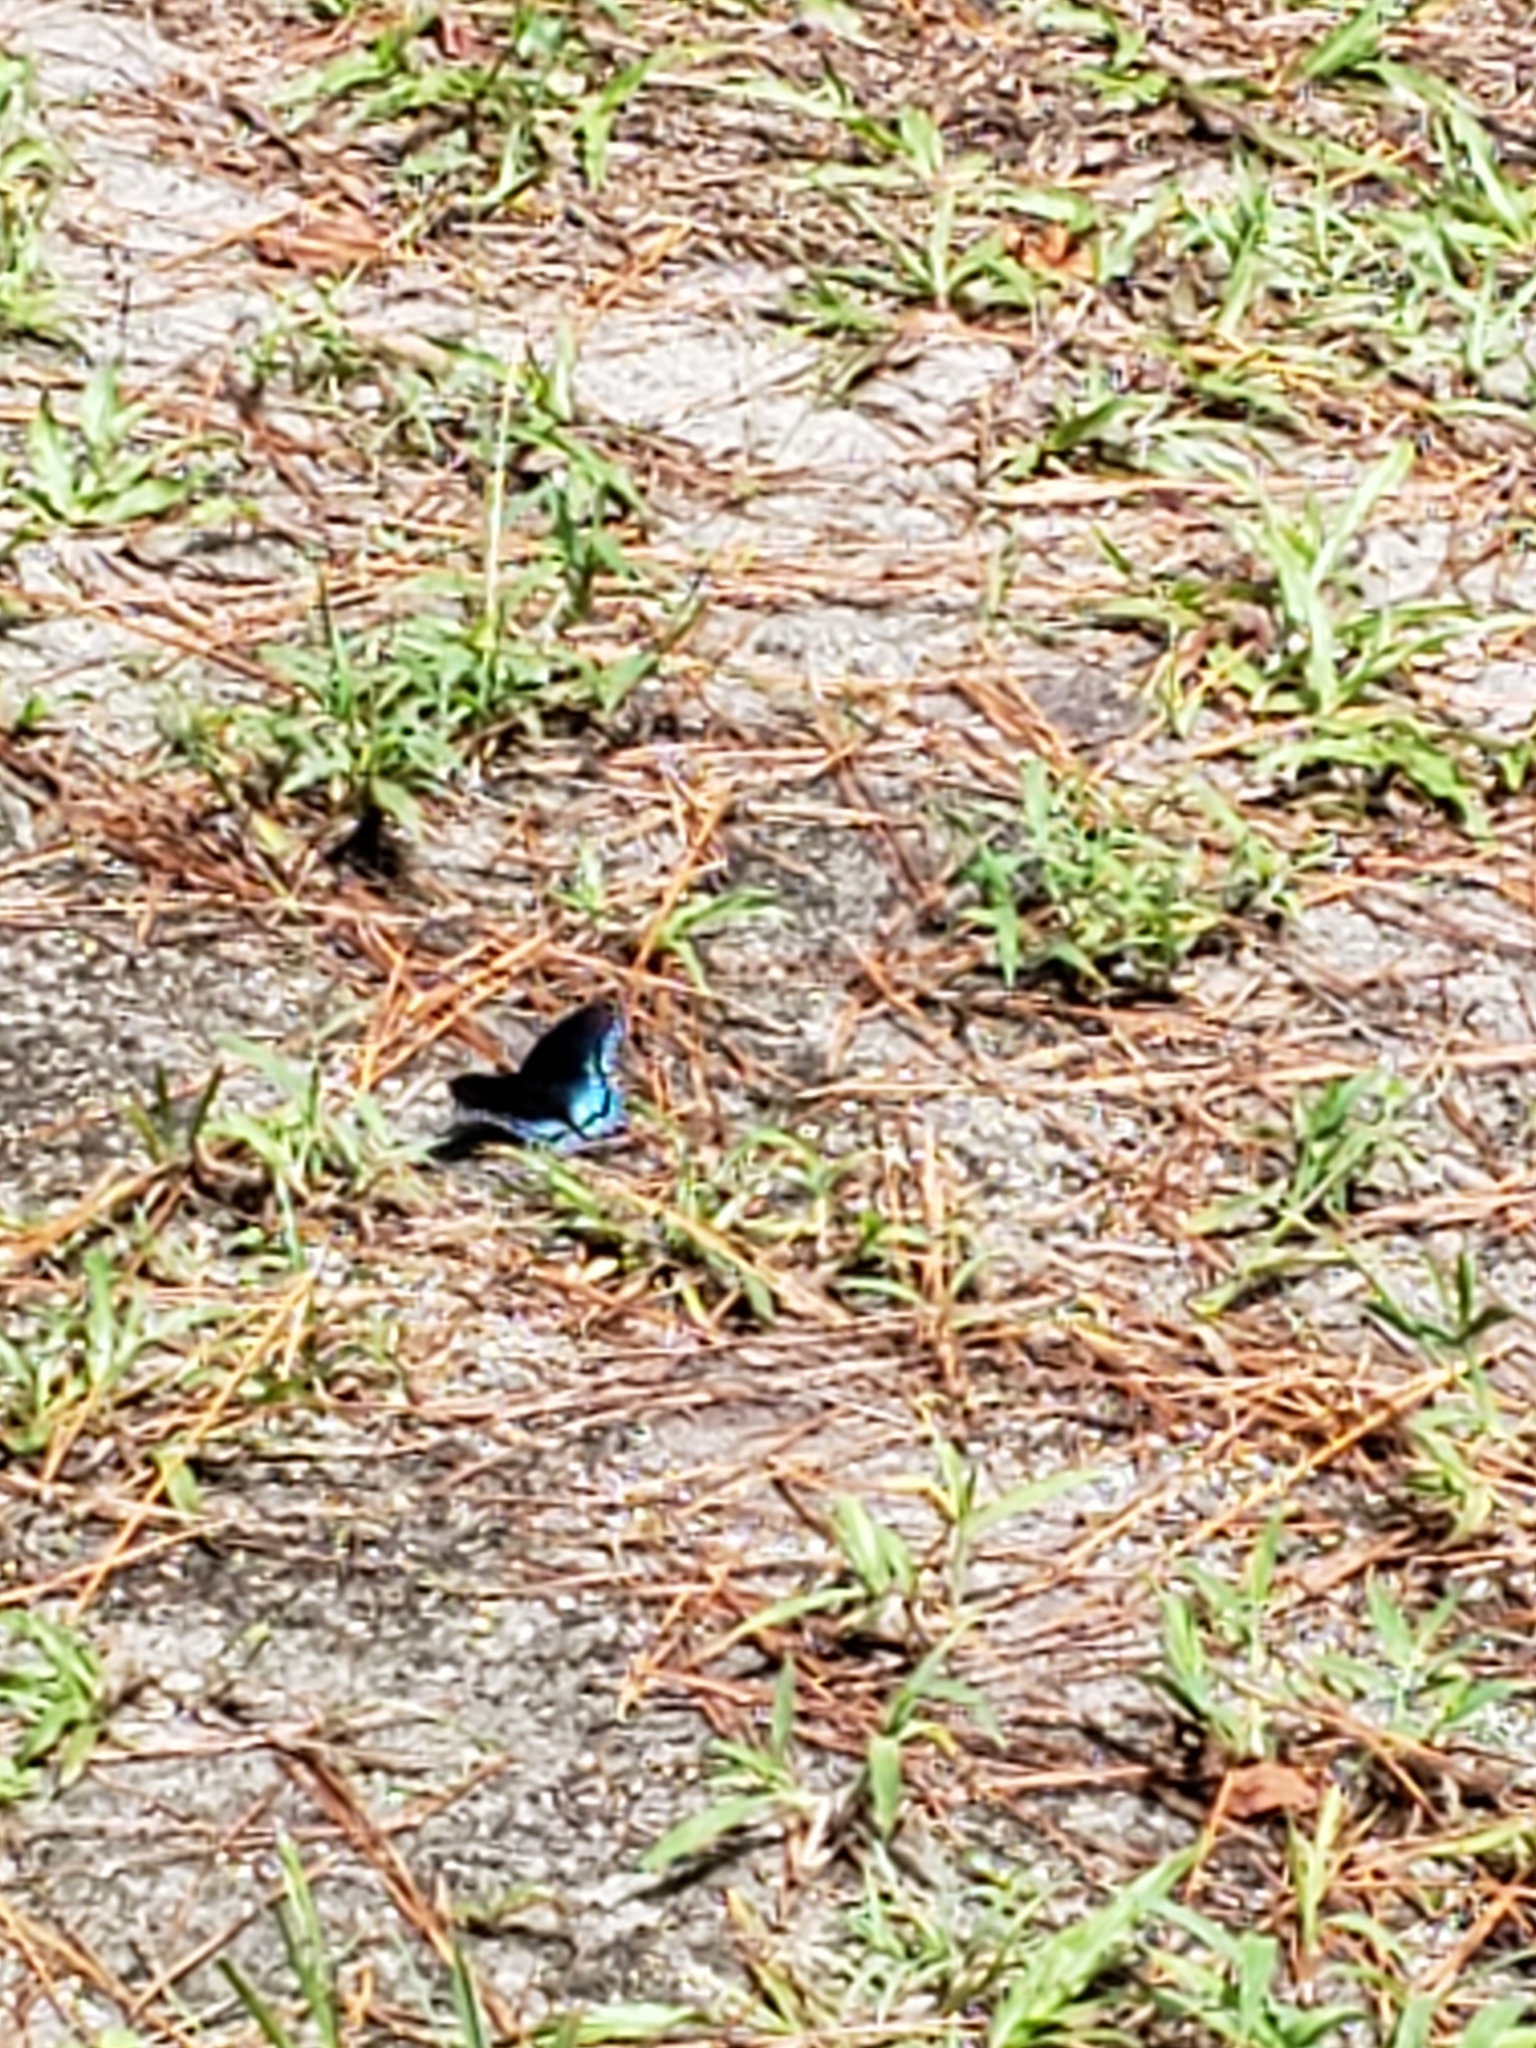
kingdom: Animalia
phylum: Arthropoda
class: Insecta
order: Lepidoptera
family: Nymphalidae
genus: Limenitis
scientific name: Limenitis astyanax
